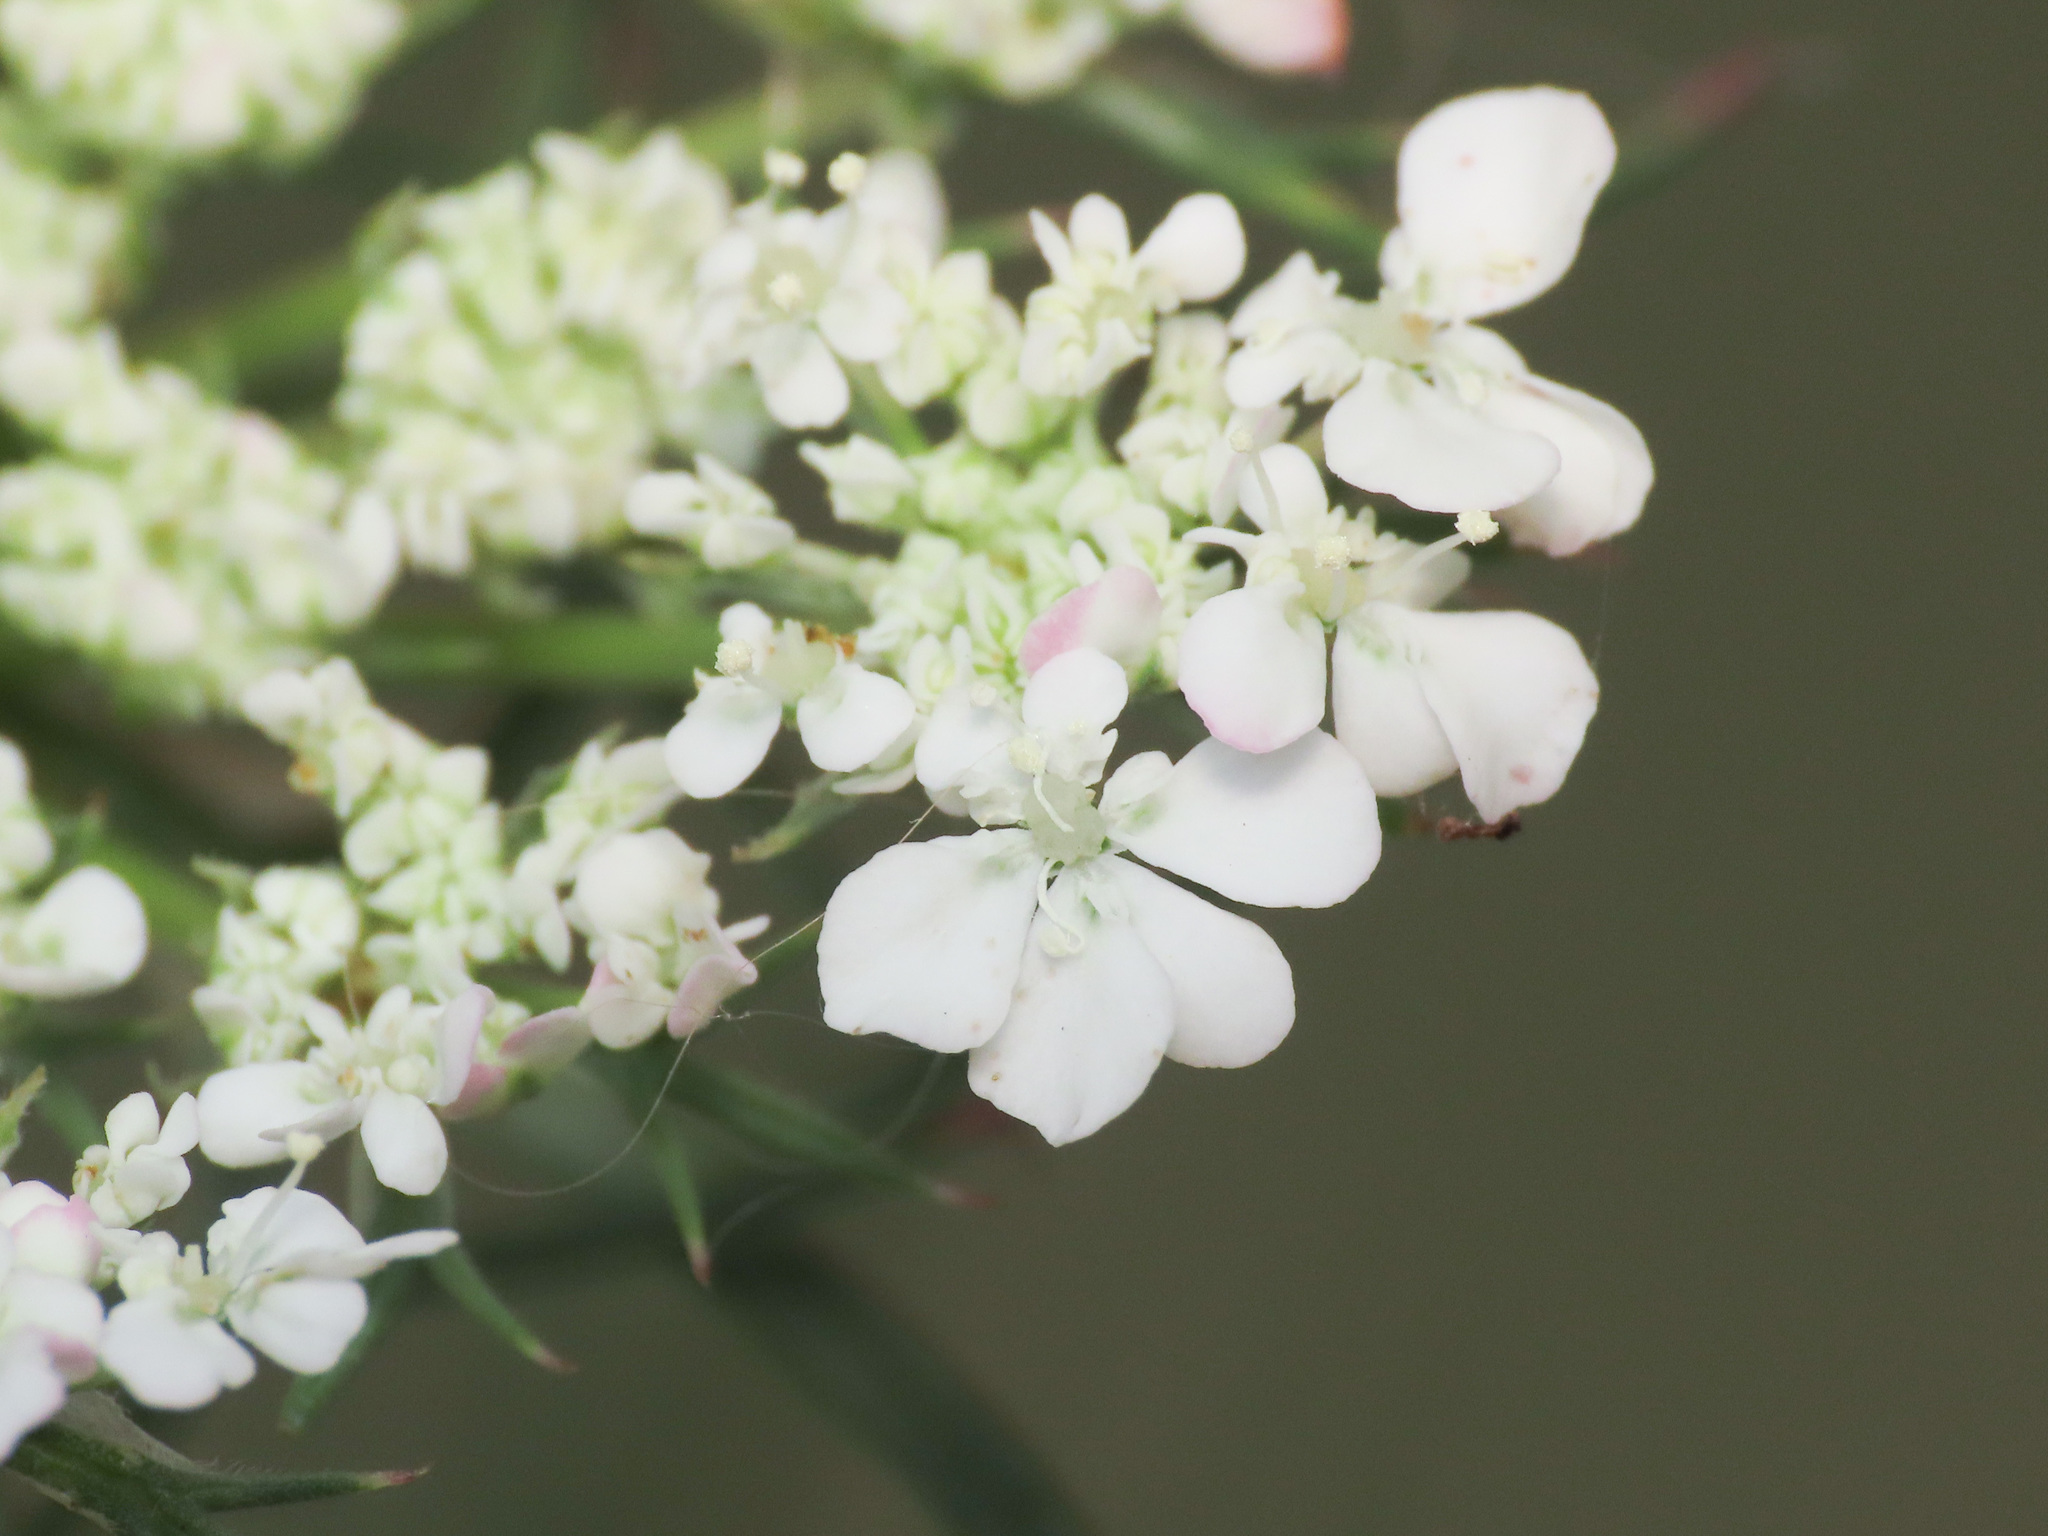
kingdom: Plantae
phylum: Tracheophyta
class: Magnoliopsida
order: Apiales
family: Apiaceae
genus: Daucus
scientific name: Daucus carota
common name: Wild carrot
